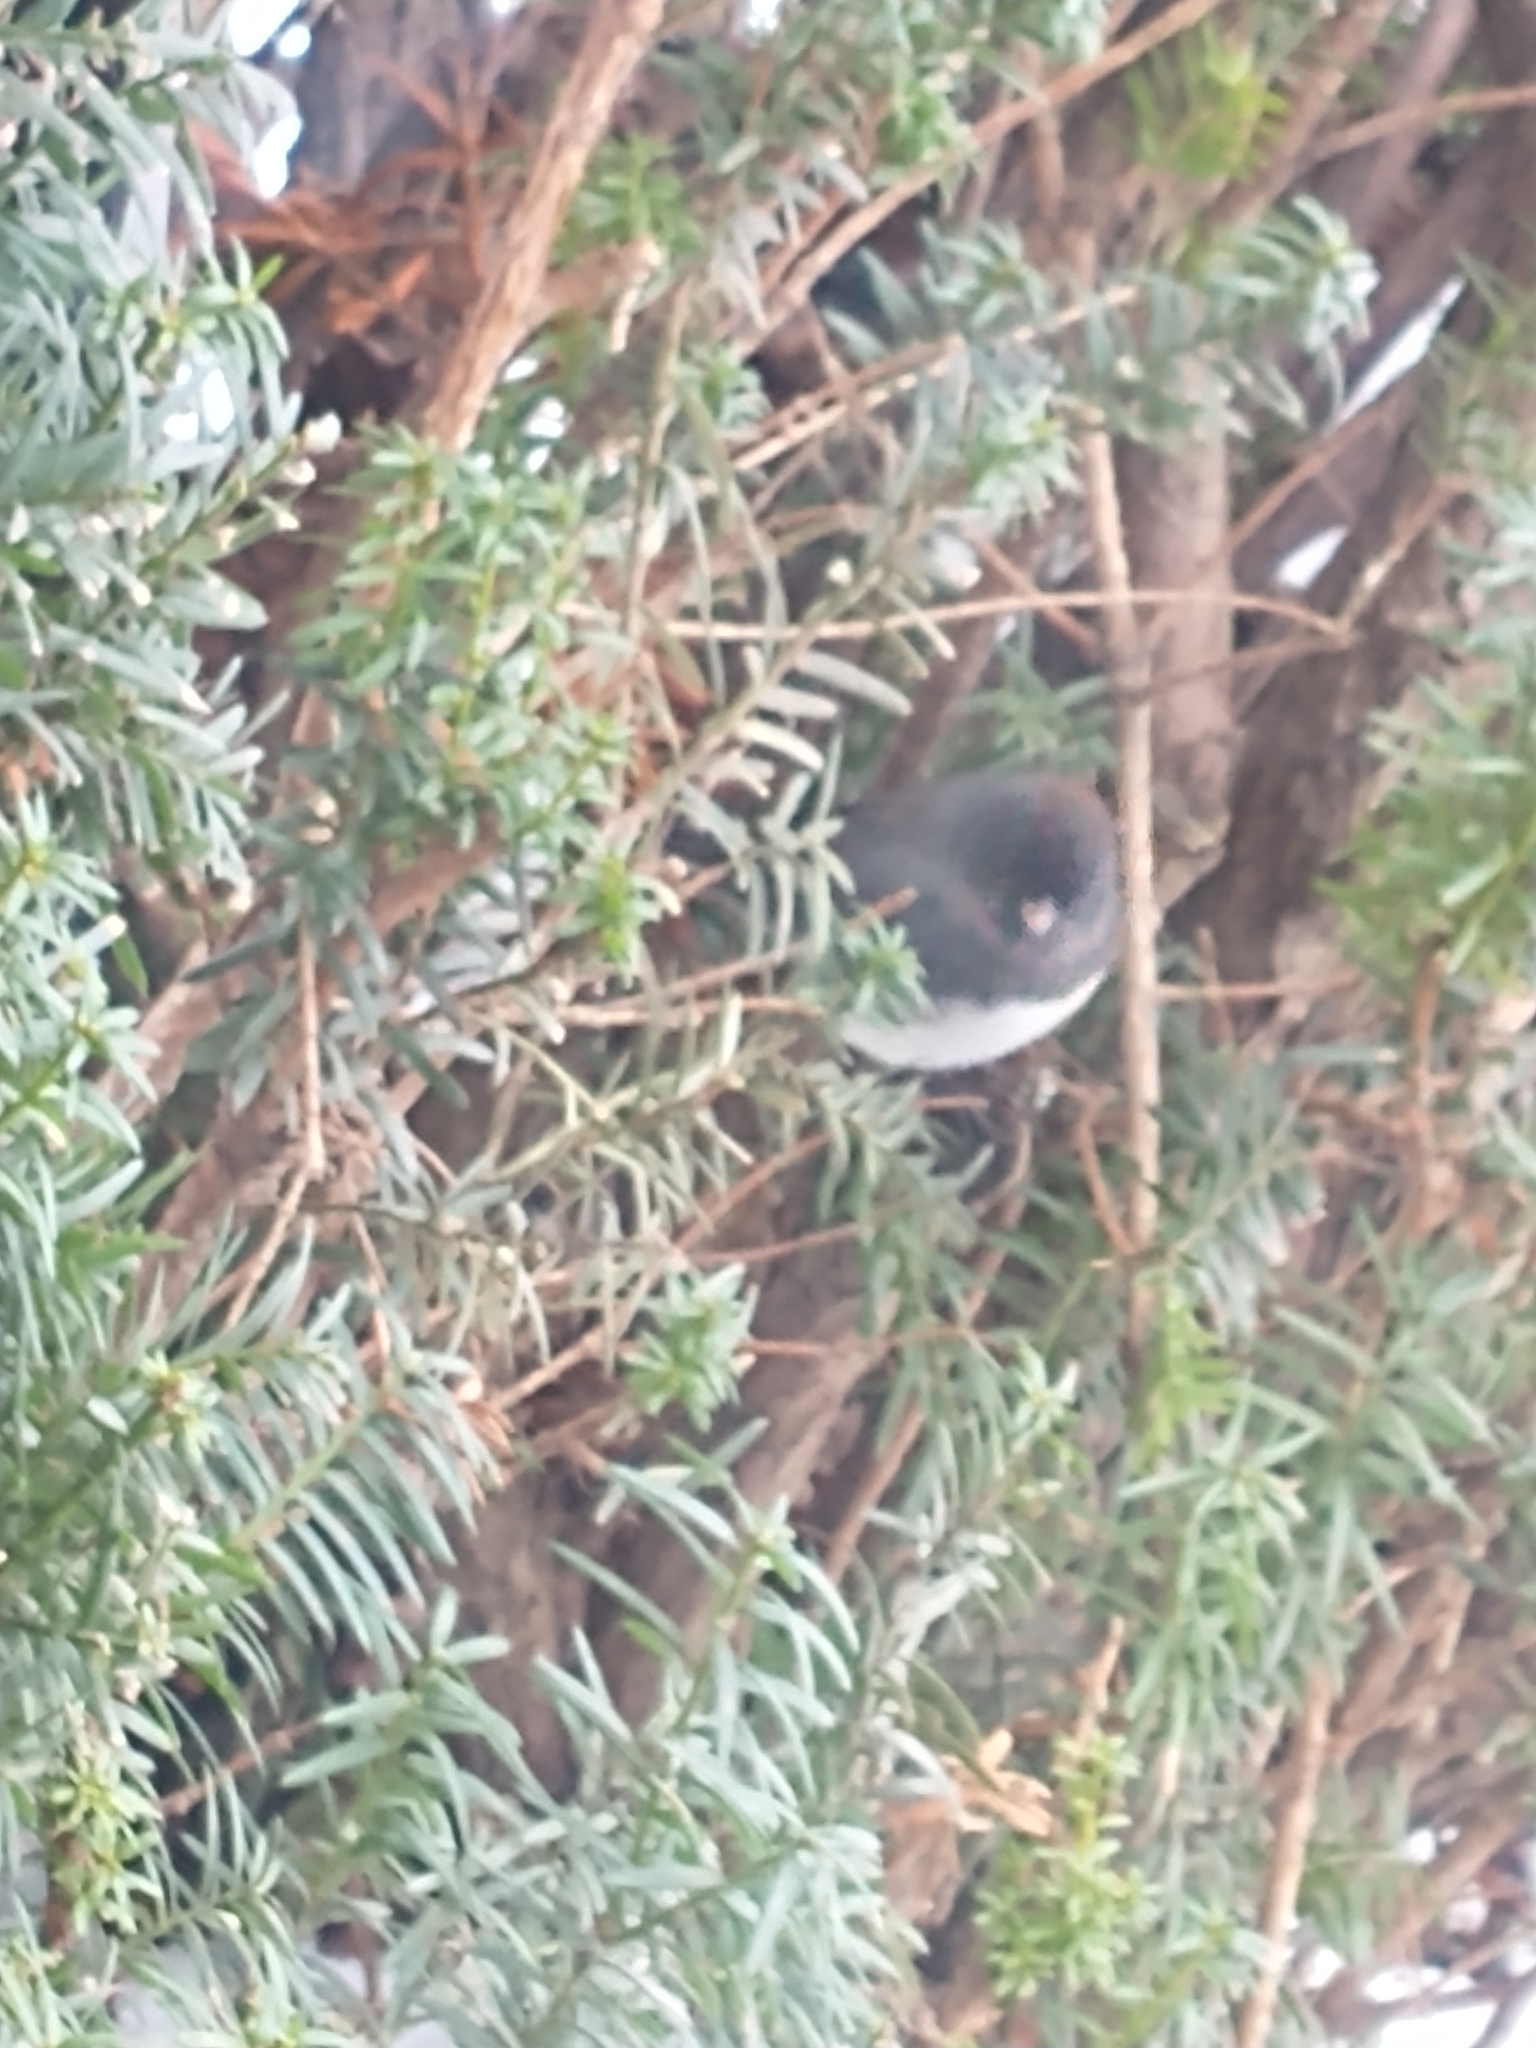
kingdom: Animalia
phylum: Chordata
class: Aves
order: Passeriformes
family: Passerellidae
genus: Junco
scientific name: Junco hyemalis
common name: Dark-eyed junco
